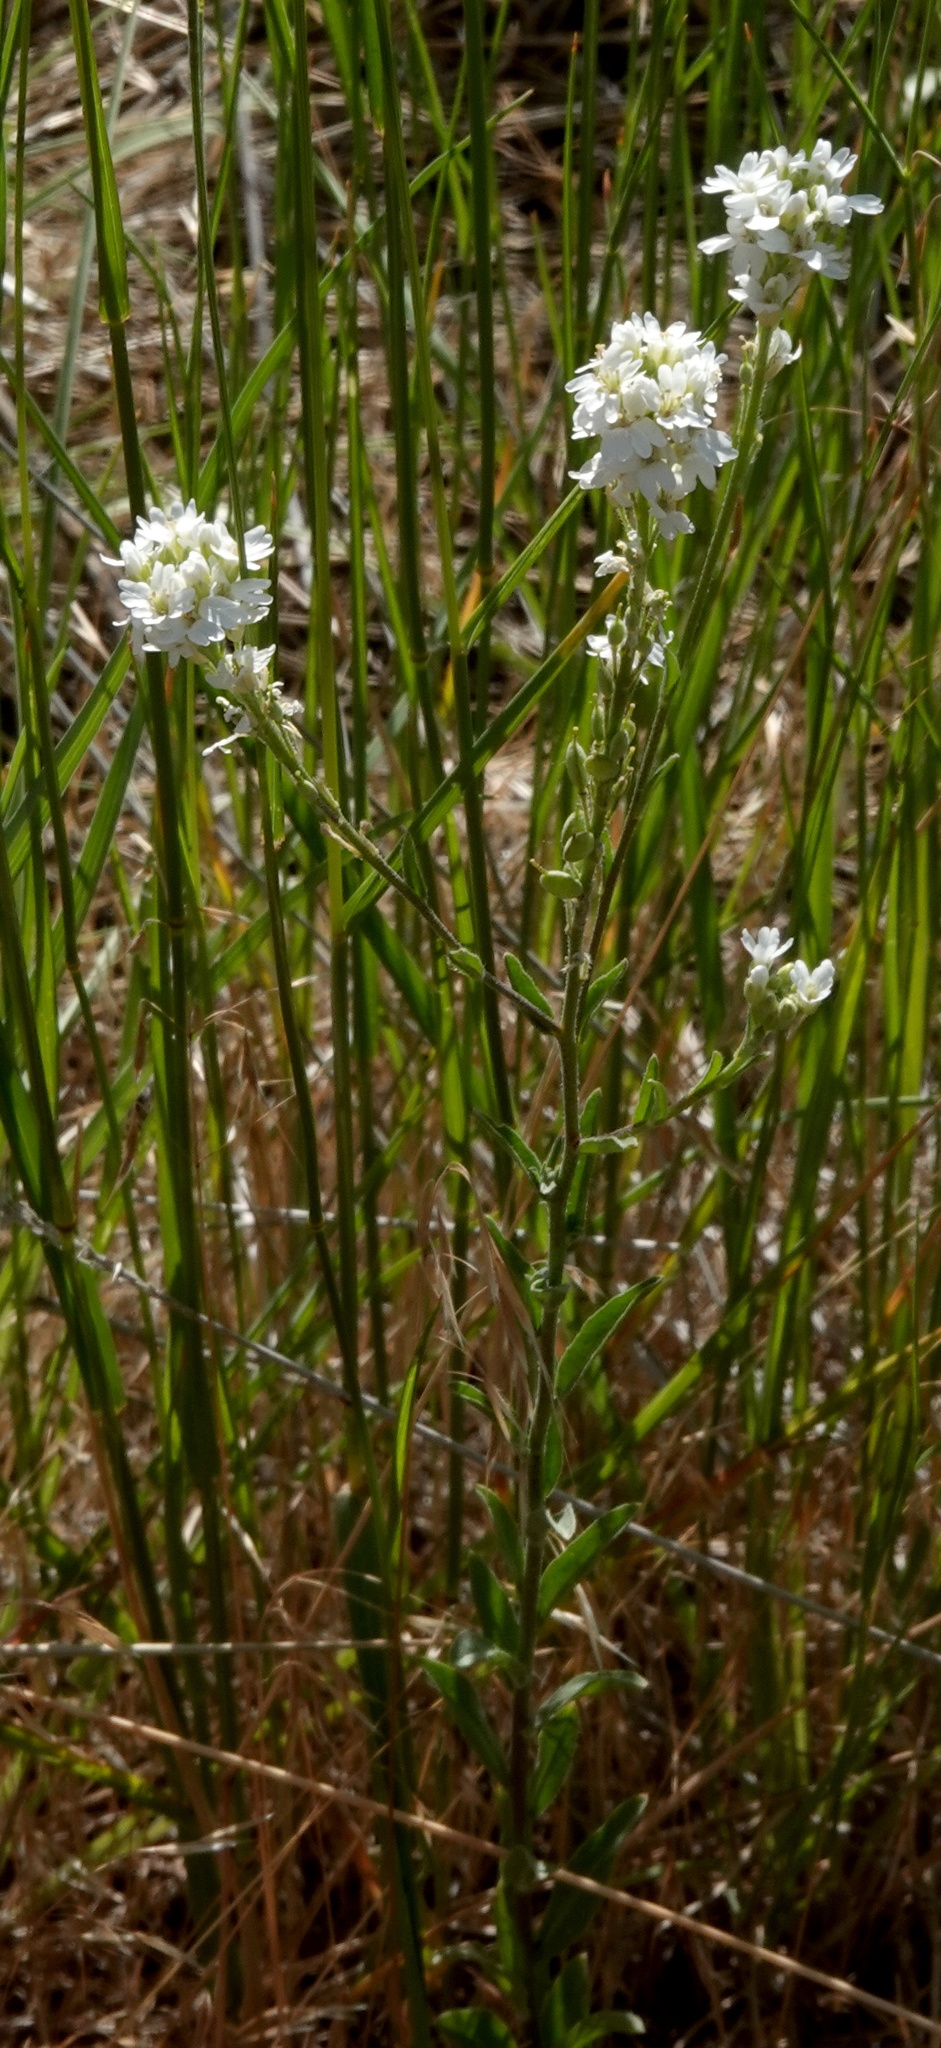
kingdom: Plantae
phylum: Tracheophyta
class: Magnoliopsida
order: Brassicales
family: Brassicaceae
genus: Berteroa
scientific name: Berteroa incana
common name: Hoary alison
